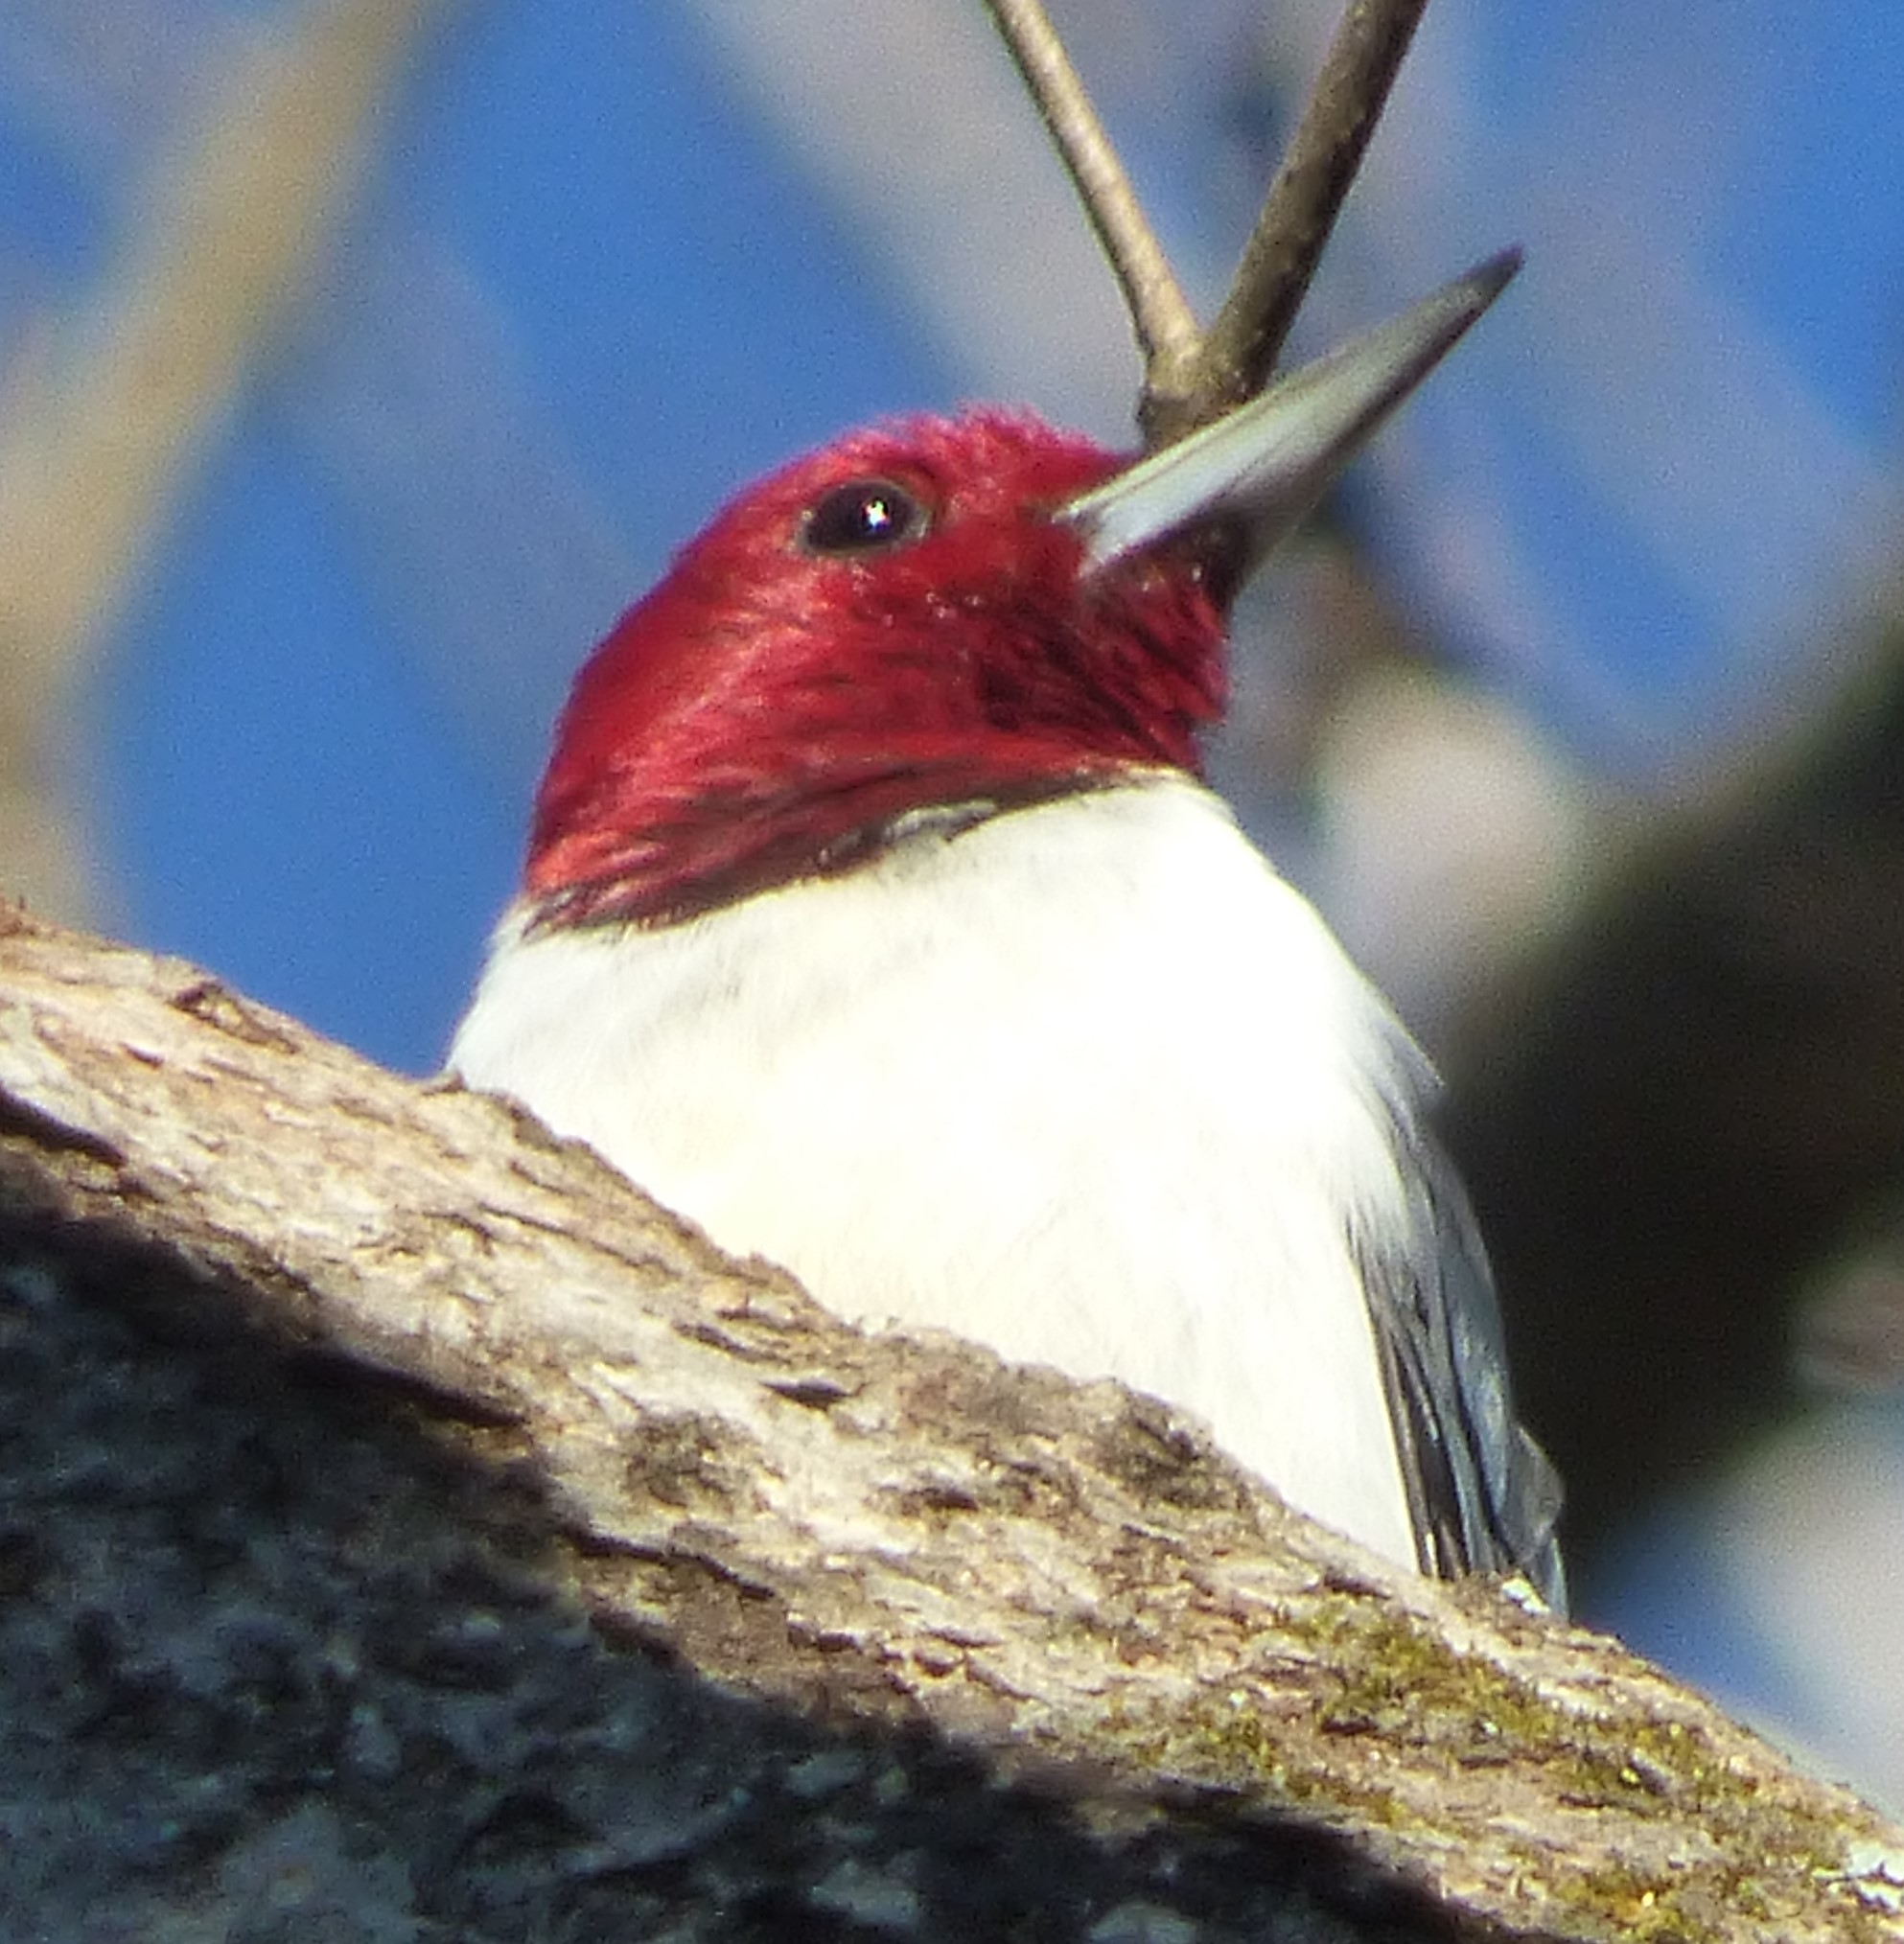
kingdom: Animalia
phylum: Chordata
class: Aves
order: Piciformes
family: Picidae
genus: Melanerpes
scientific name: Melanerpes erythrocephalus
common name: Red-headed woodpecker
